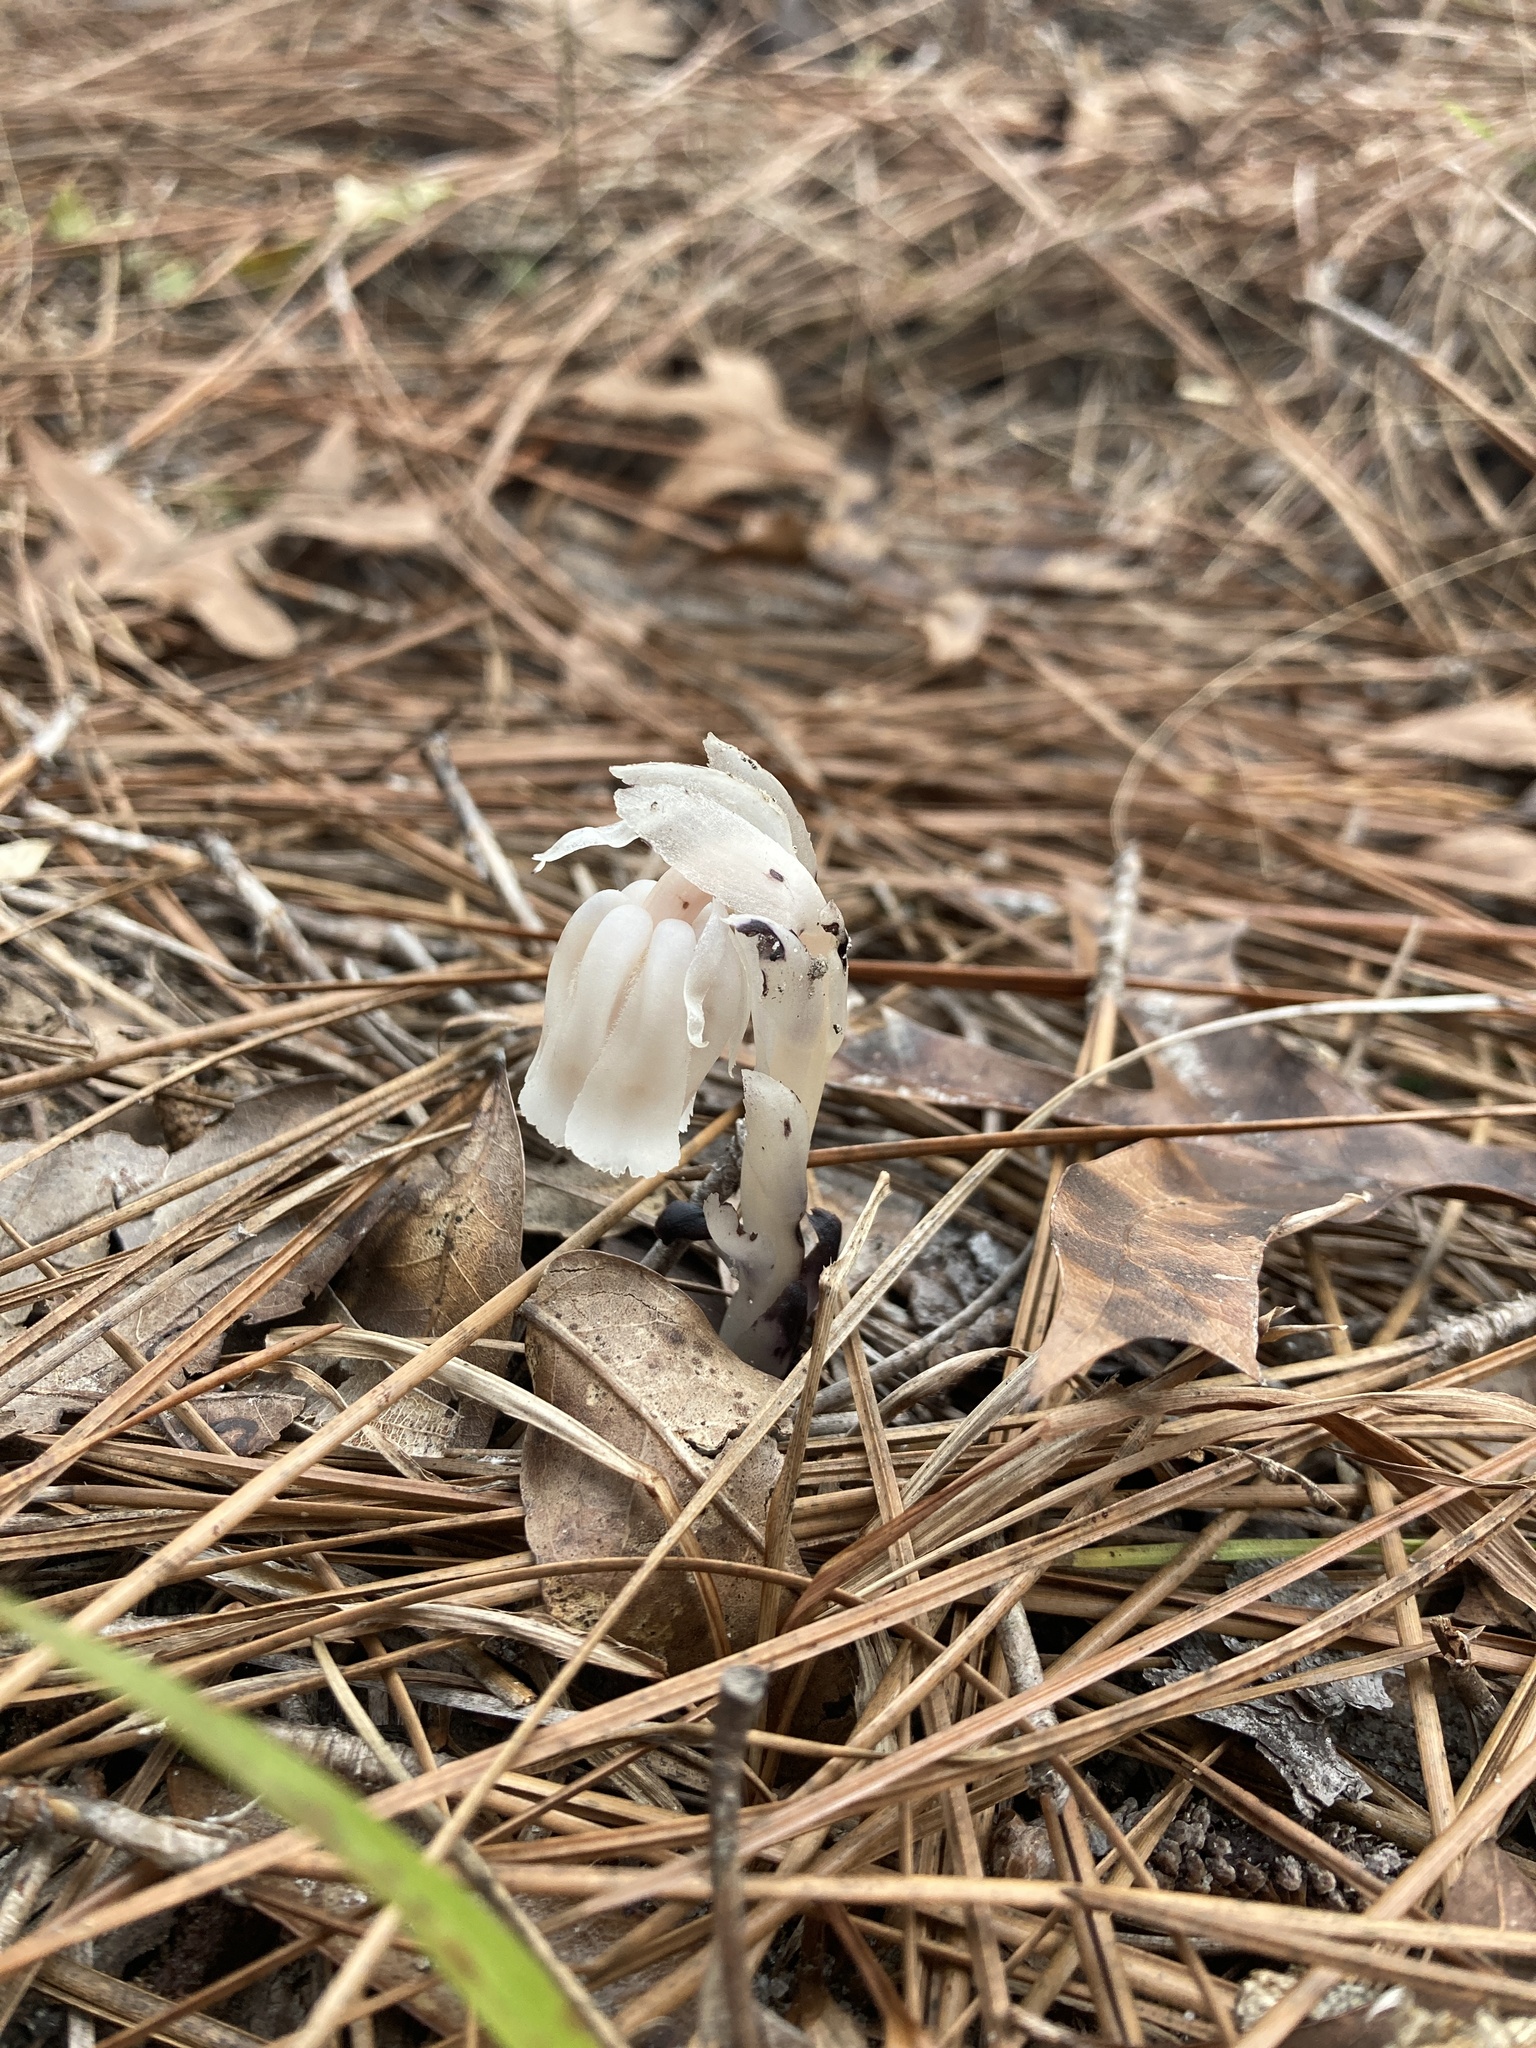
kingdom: Plantae
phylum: Tracheophyta
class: Magnoliopsida
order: Ericales
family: Ericaceae
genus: Monotropa
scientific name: Monotropa uniflora
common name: Convulsion root
